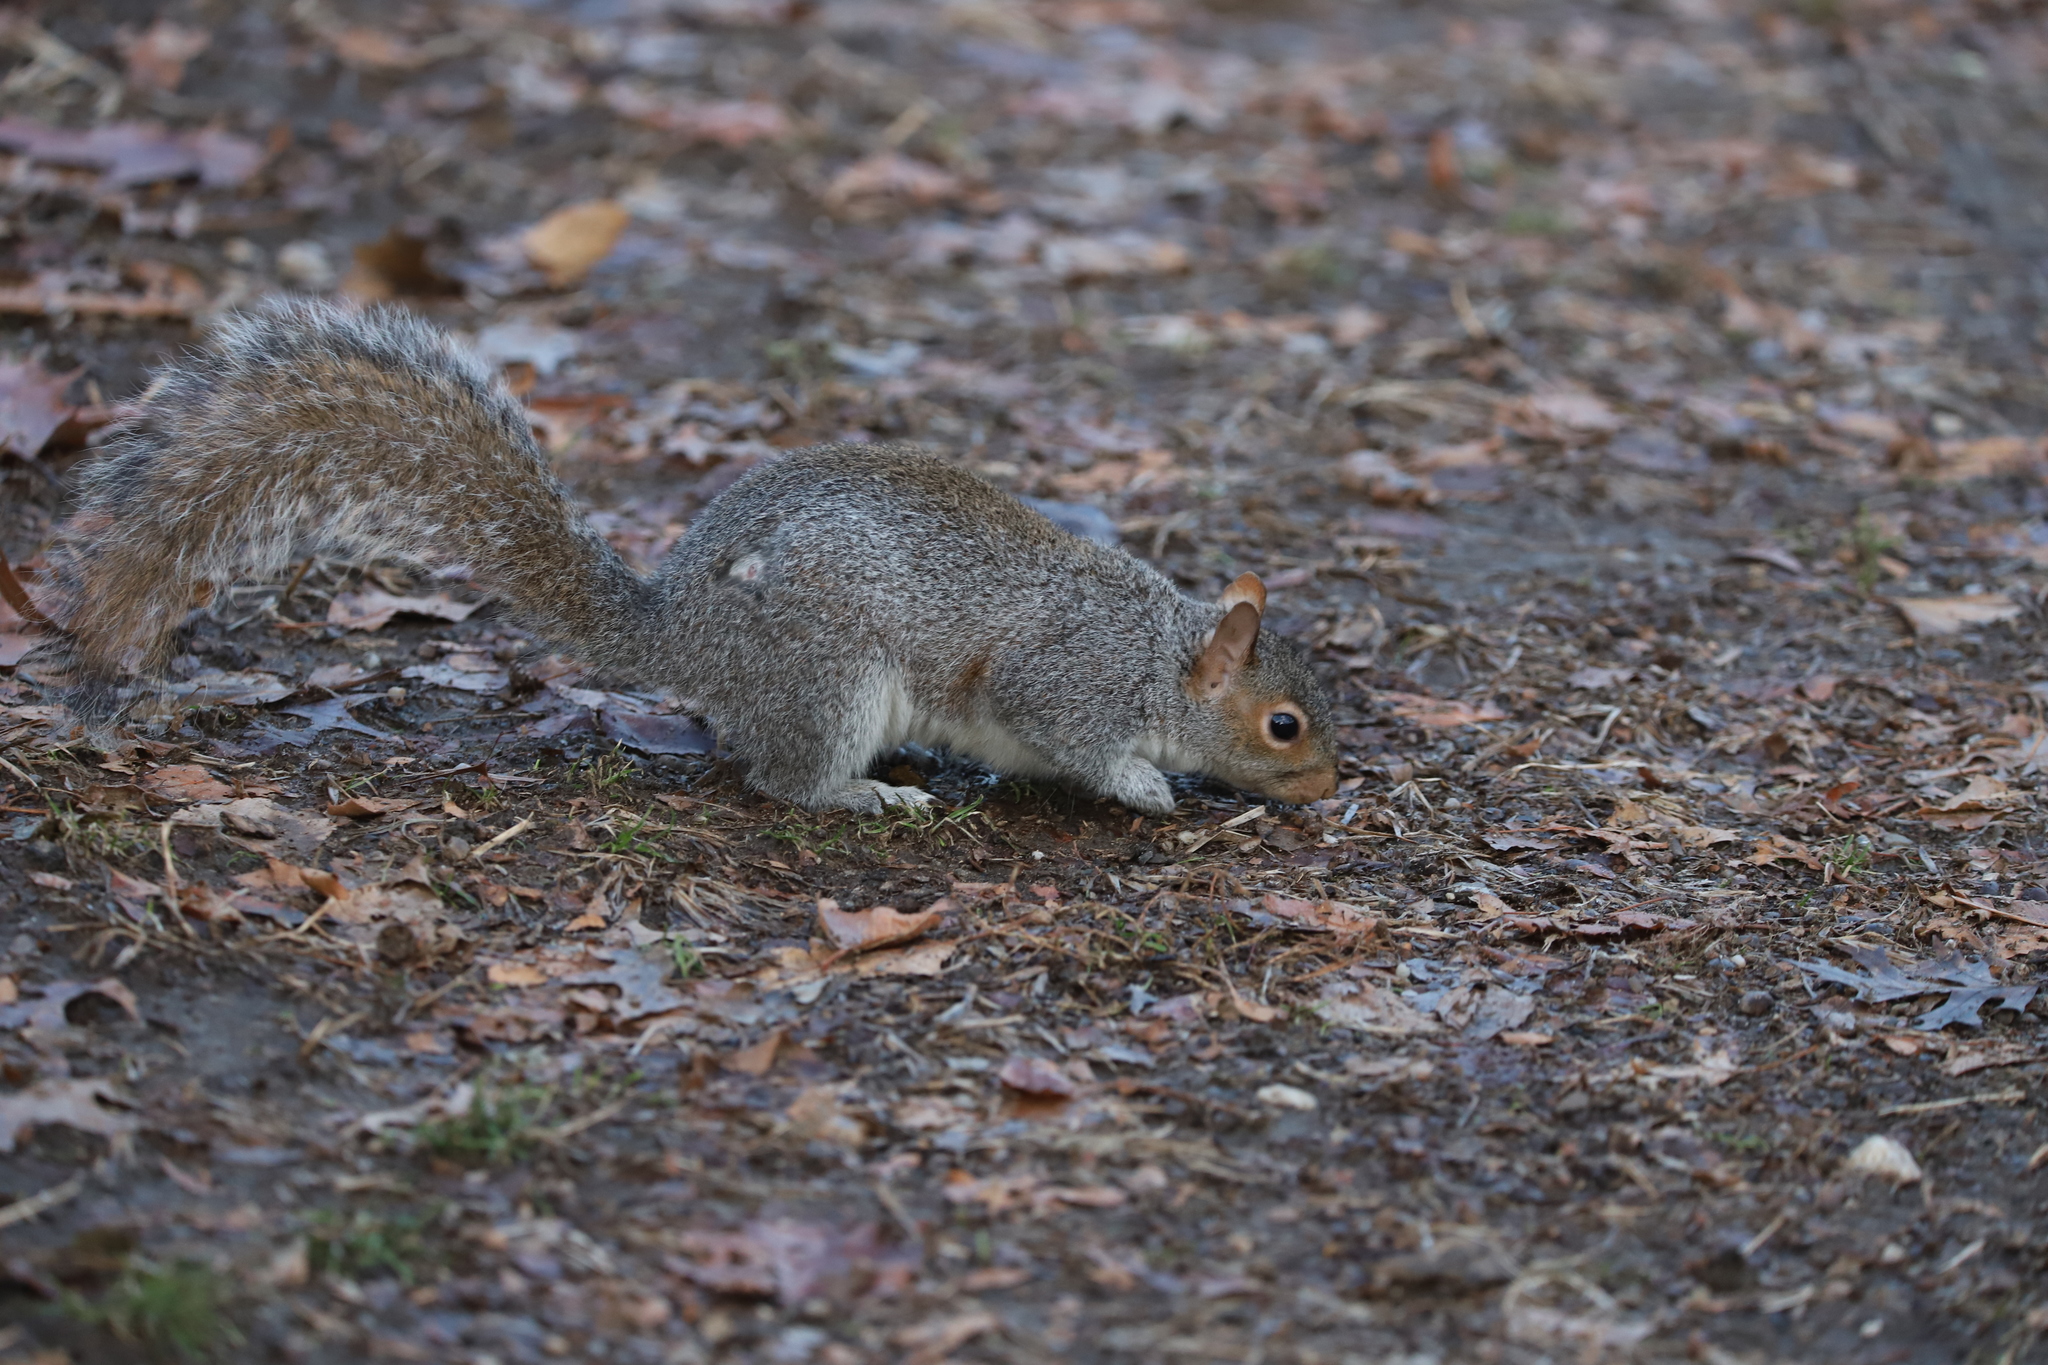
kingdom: Animalia
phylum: Chordata
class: Mammalia
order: Rodentia
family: Sciuridae
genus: Sciurus
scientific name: Sciurus carolinensis
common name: Eastern gray squirrel
